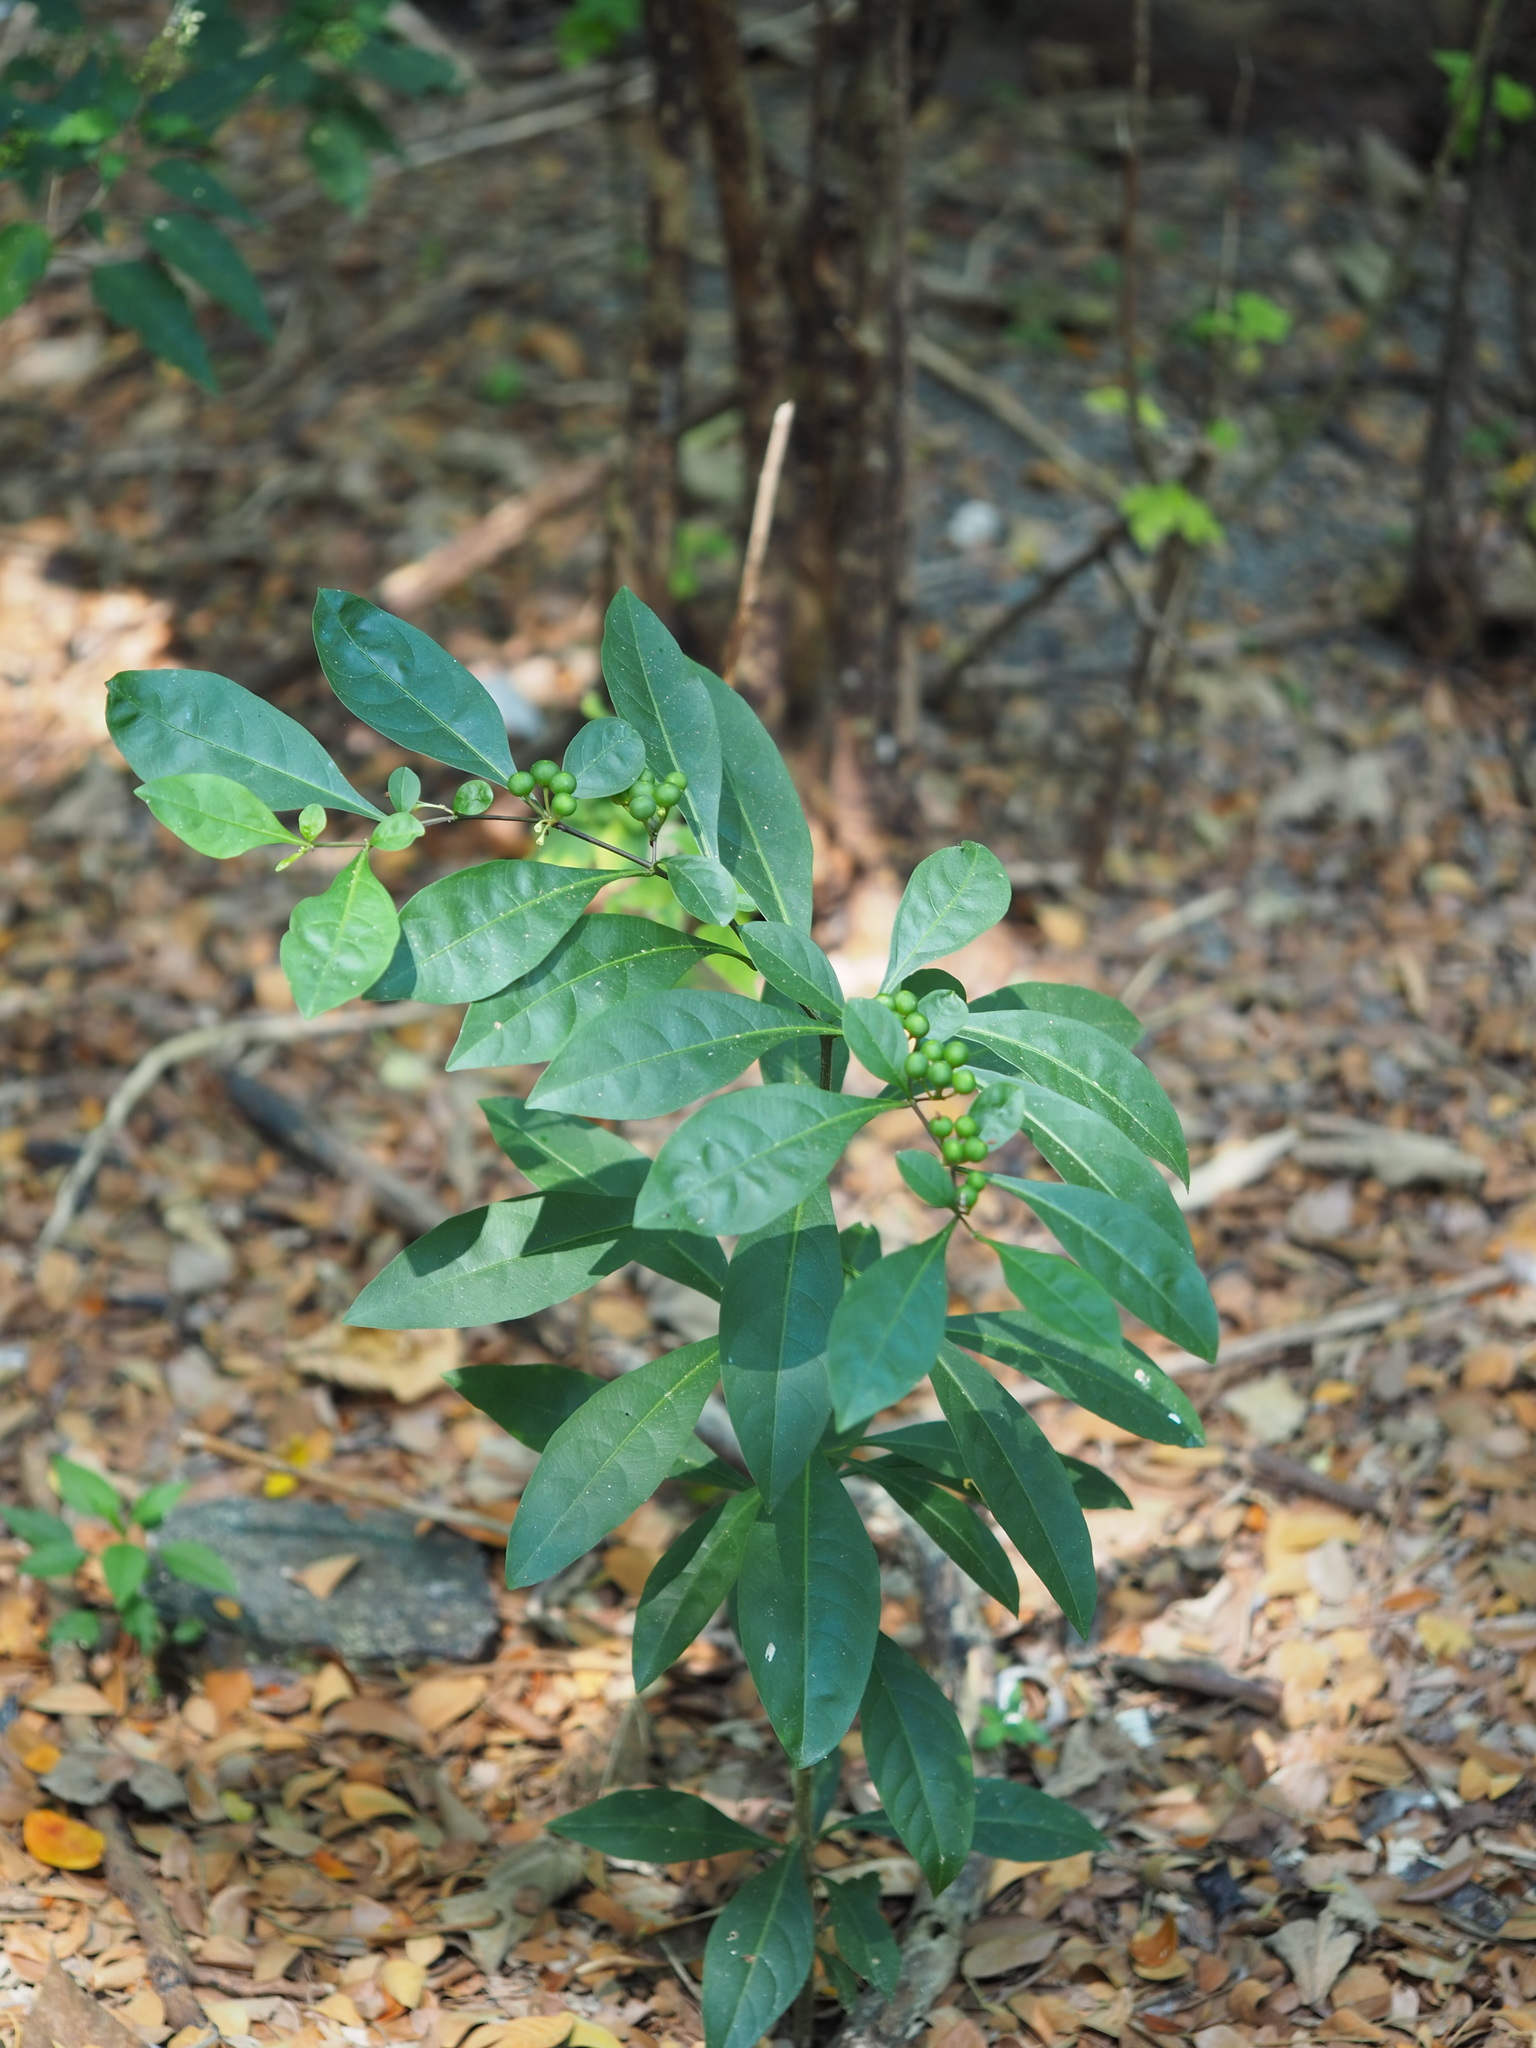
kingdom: Plantae
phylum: Tracheophyta
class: Magnoliopsida
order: Solanales
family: Solanaceae
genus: Solanum
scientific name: Solanum diphyllum
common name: Twoleaf nightshade
